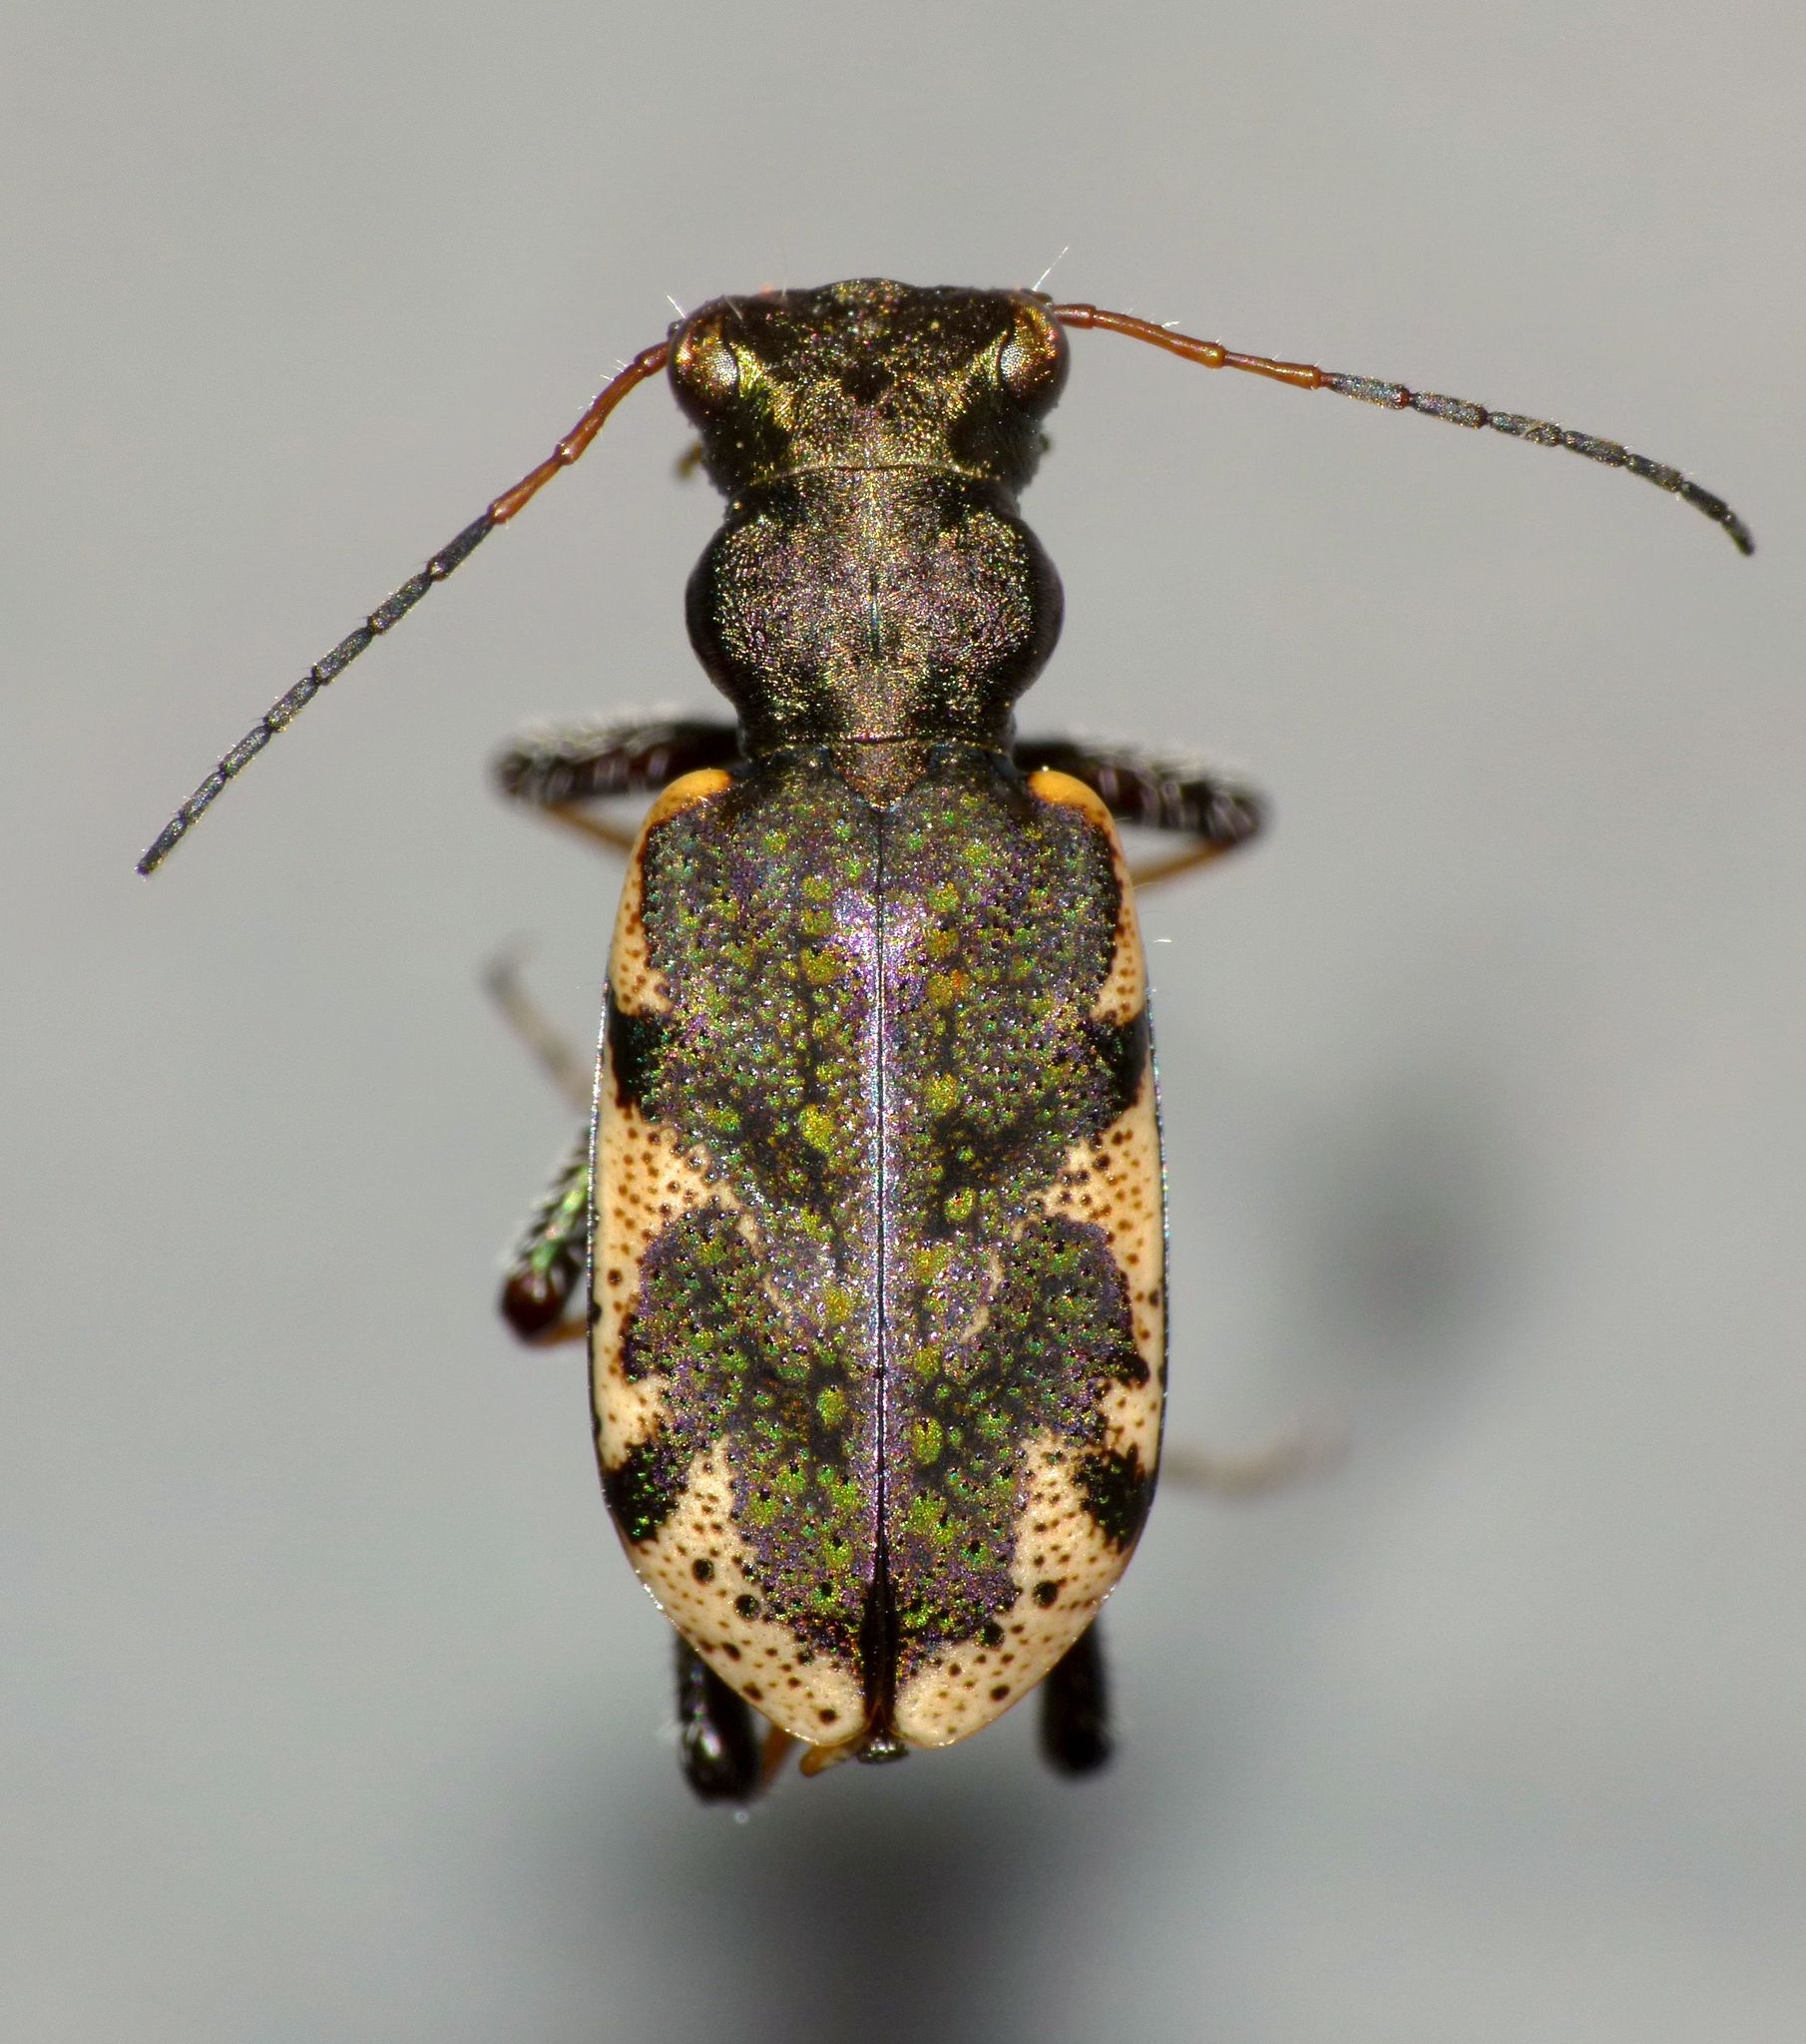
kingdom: Animalia
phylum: Arthropoda
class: Insecta
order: Coleoptera
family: Carabidae
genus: Neocicindela
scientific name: Neocicindela garnerae
